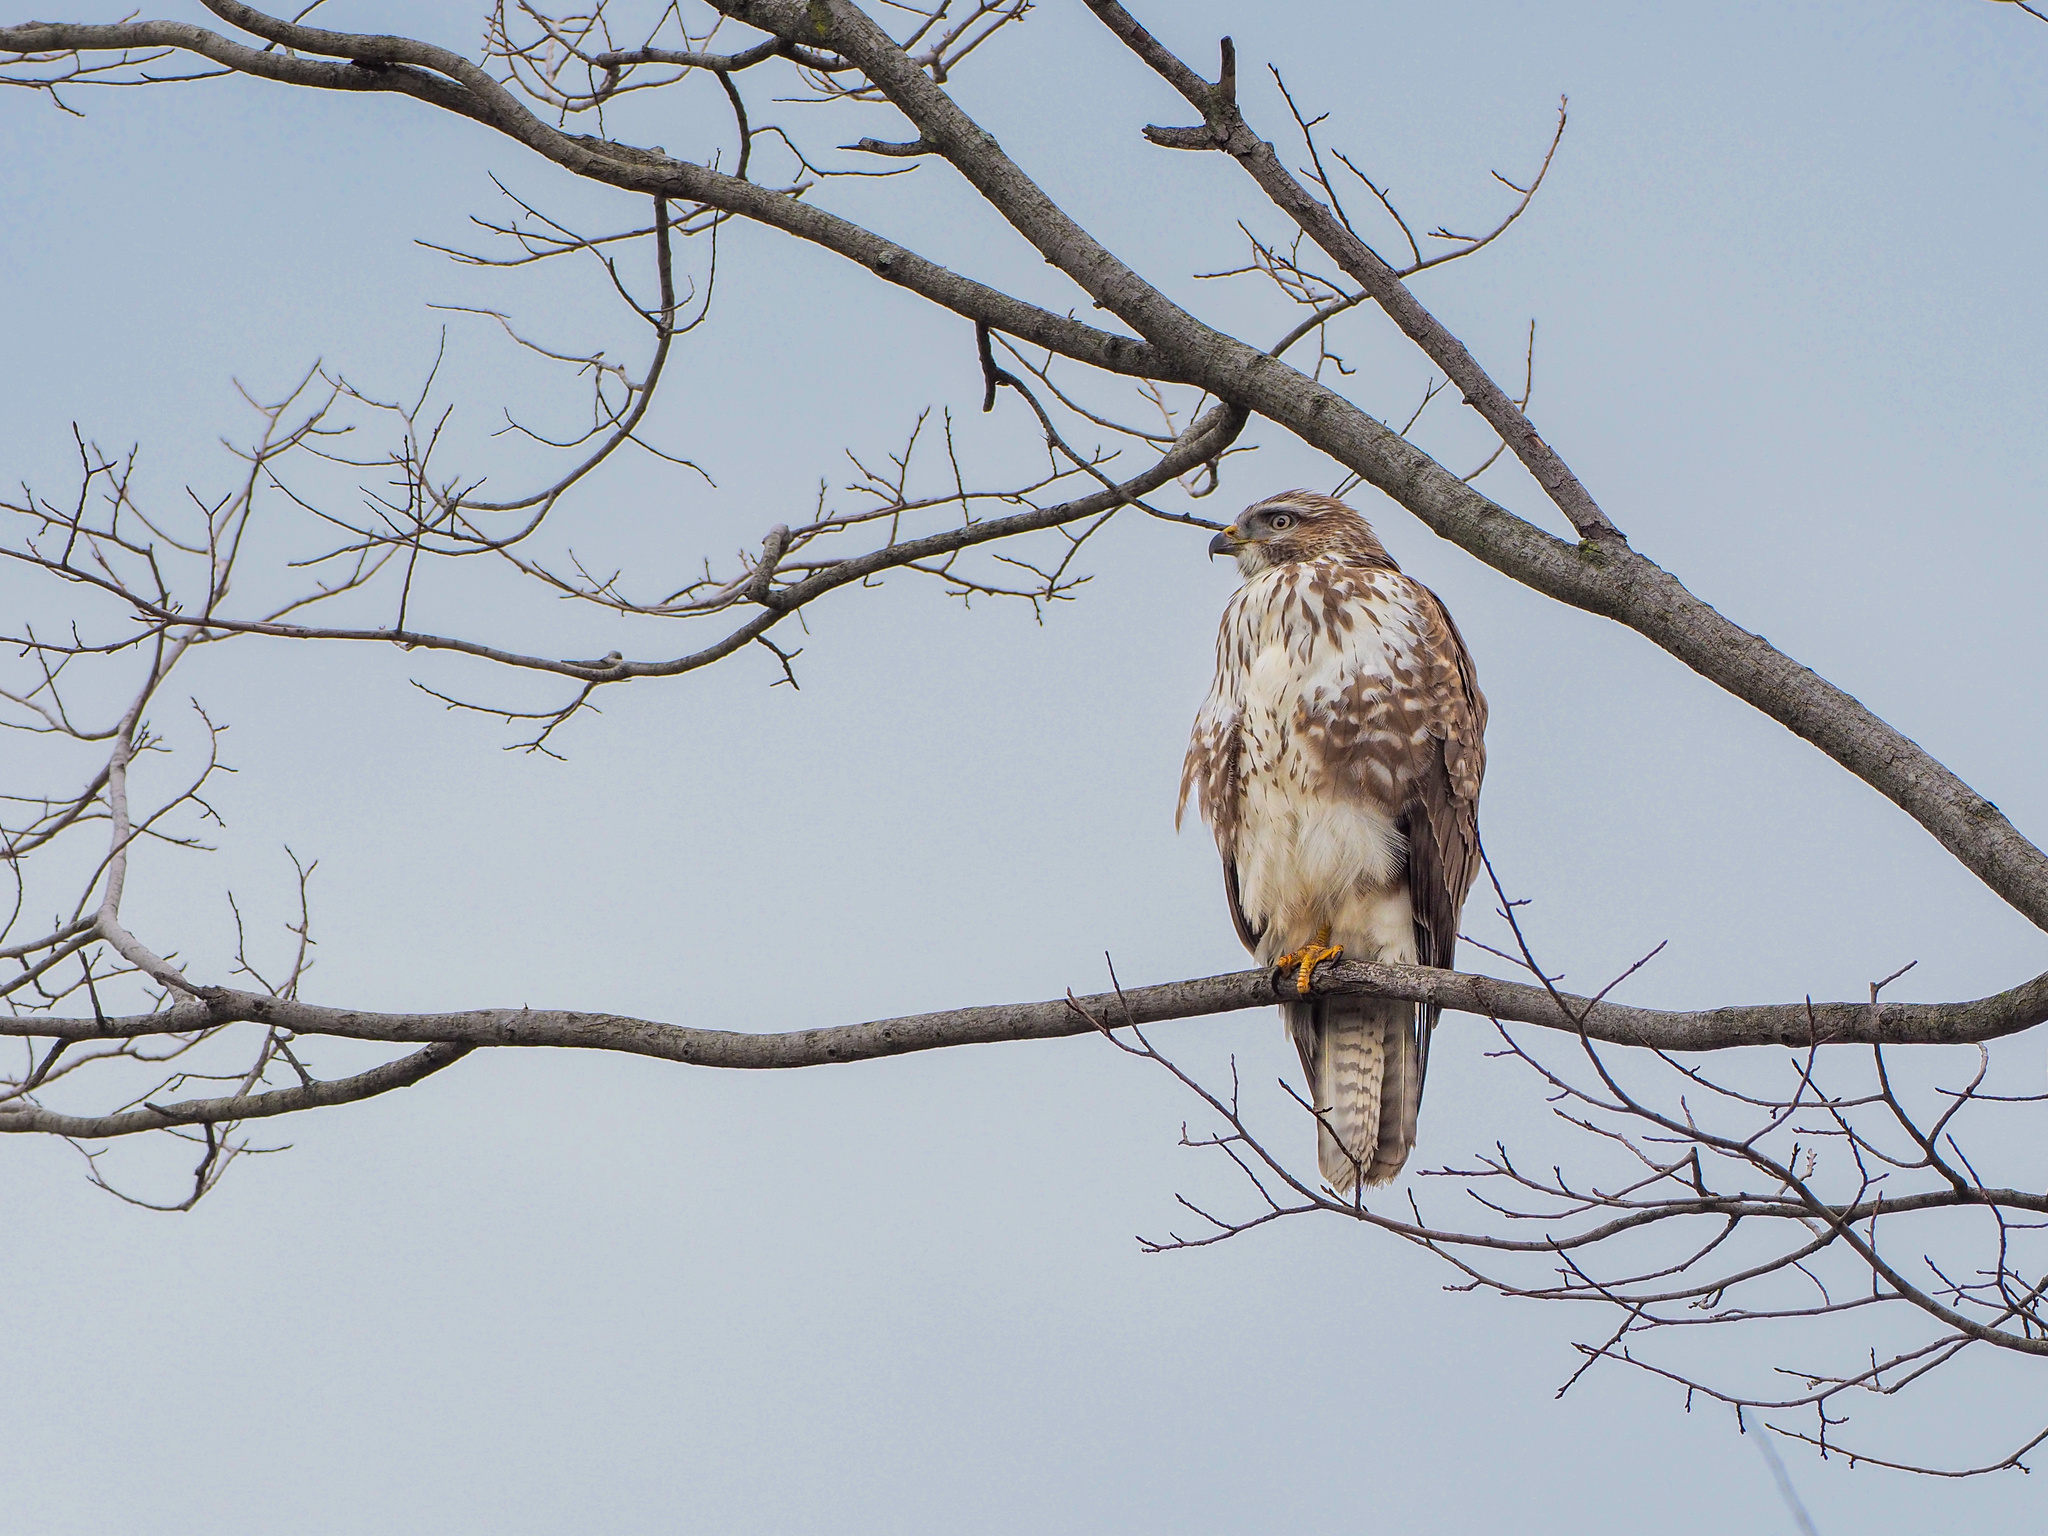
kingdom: Animalia
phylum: Chordata
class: Aves
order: Accipitriformes
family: Accipitridae
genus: Buteo
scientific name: Buteo buteo
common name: Common buzzard
